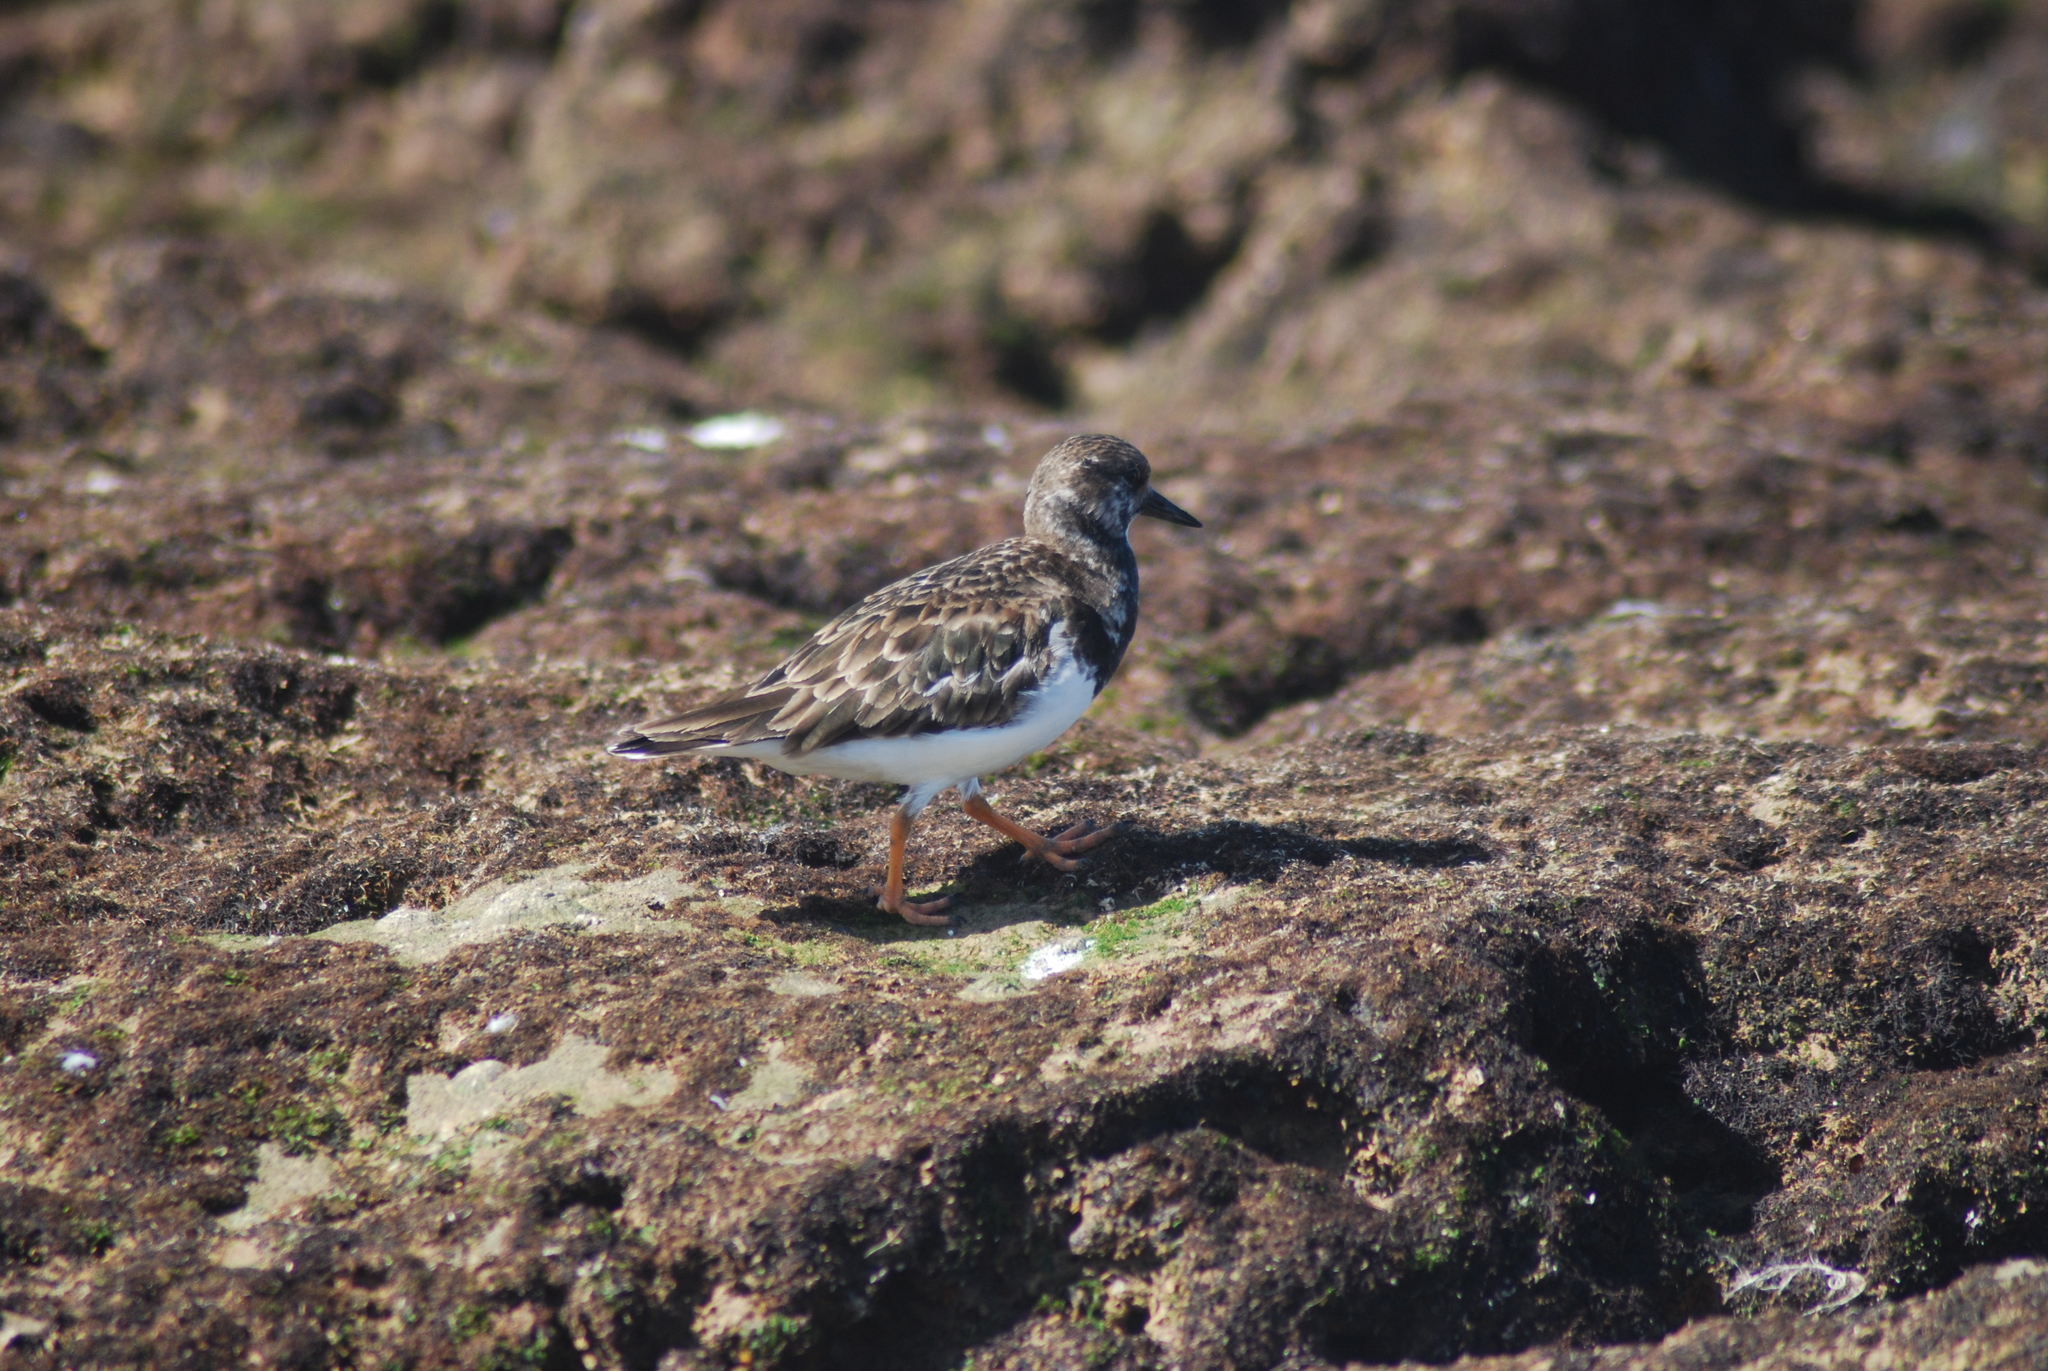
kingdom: Animalia
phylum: Chordata
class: Aves
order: Charadriiformes
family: Scolopacidae
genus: Arenaria
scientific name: Arenaria interpres
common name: Ruddy turnstone
